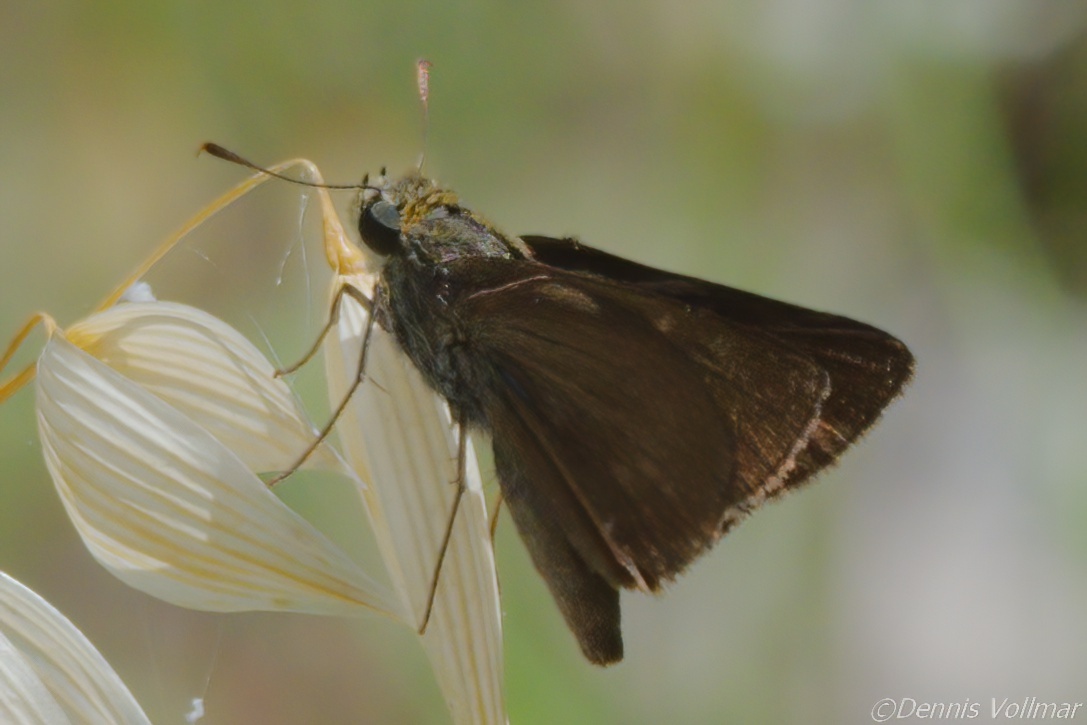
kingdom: Animalia
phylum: Arthropoda
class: Insecta
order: Lepidoptera
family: Hesperiidae
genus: Euphyes
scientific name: Euphyes vestris
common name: Dun skipper
